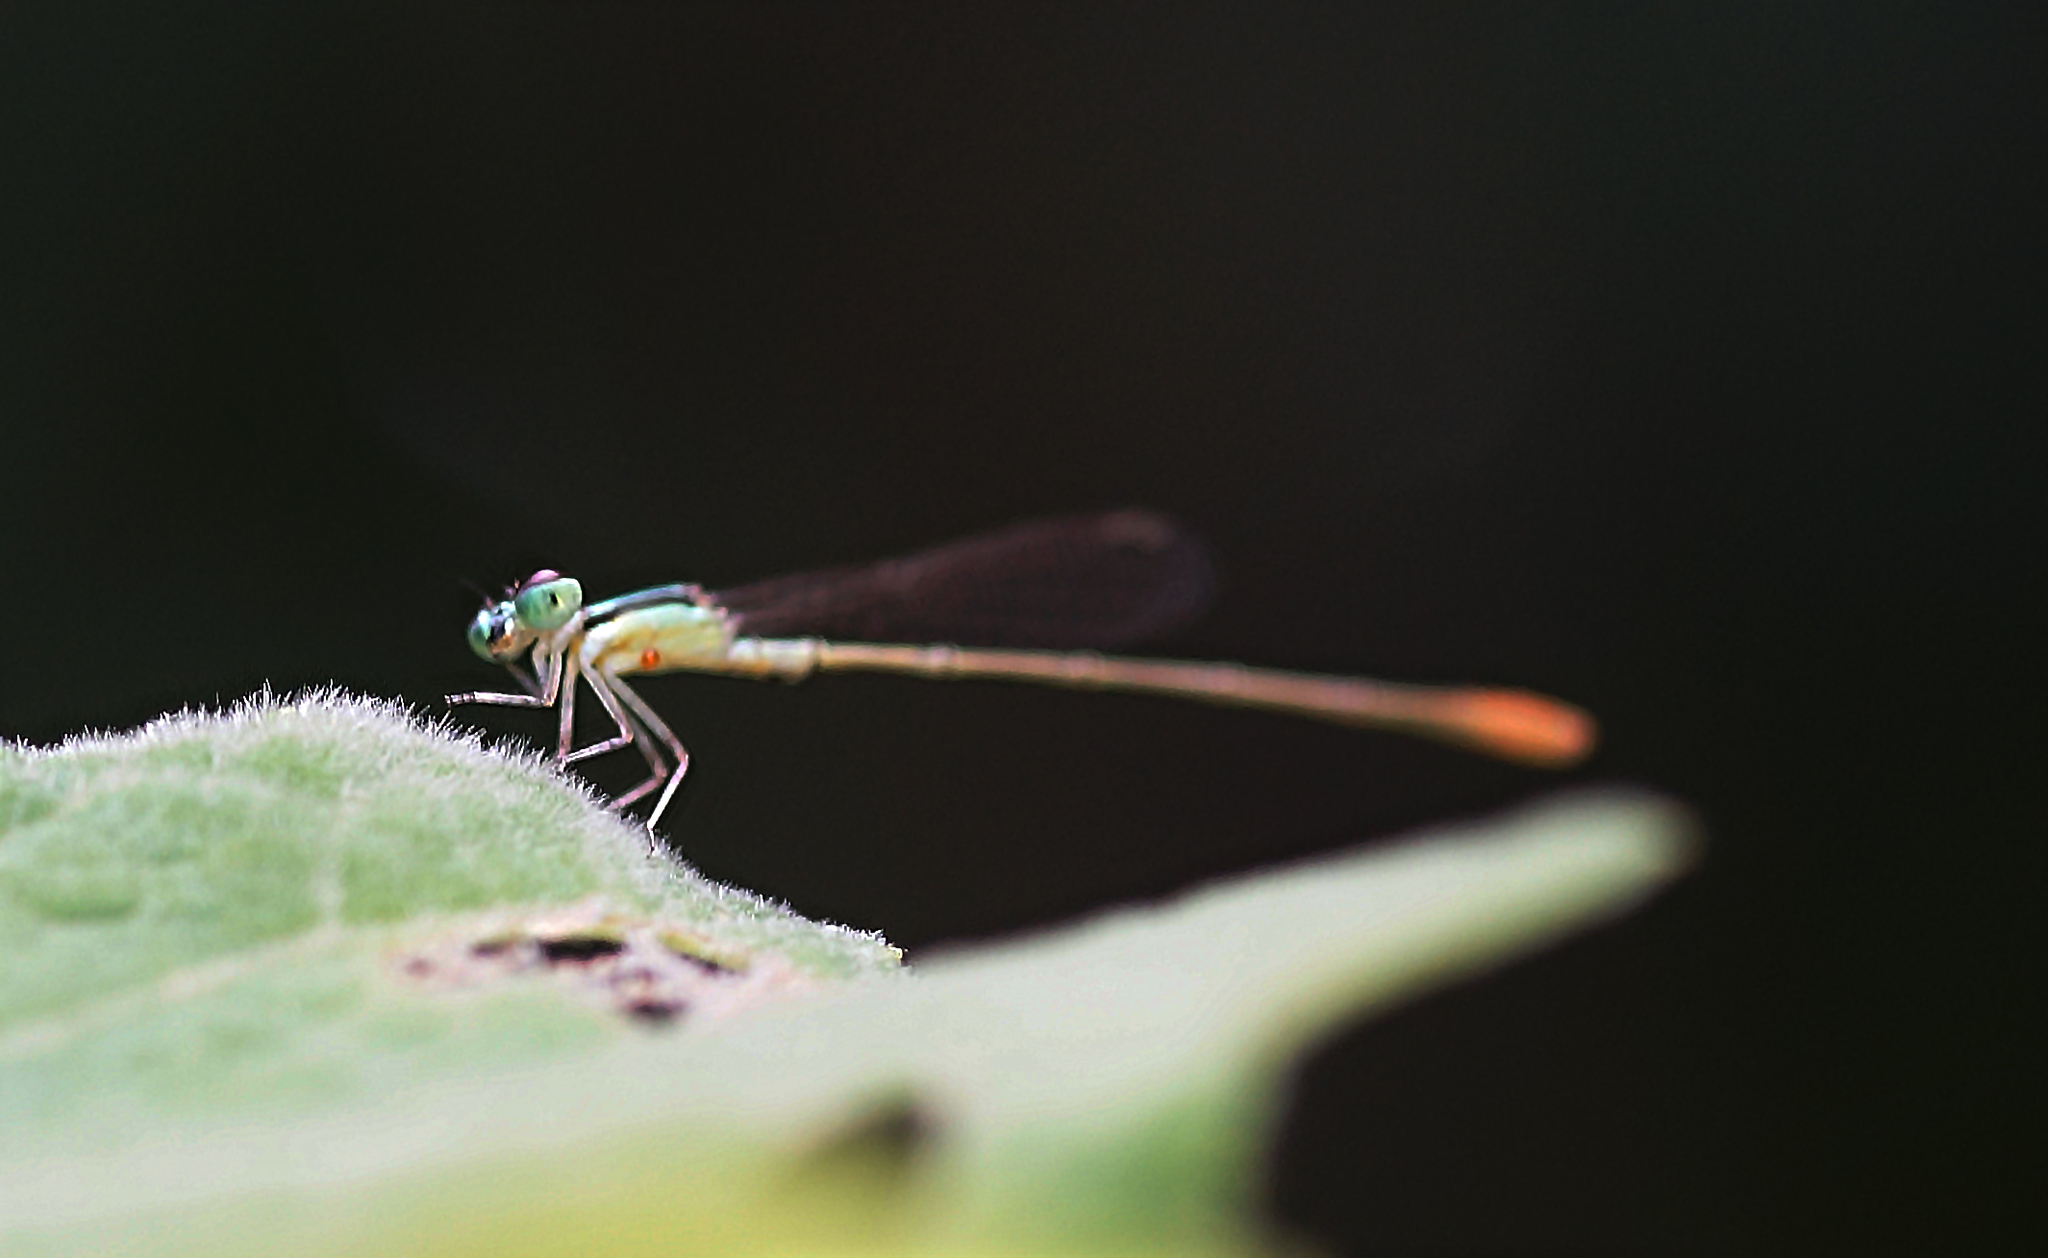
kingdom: Animalia
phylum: Arthropoda
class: Insecta
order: Odonata
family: Coenagrionidae
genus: Argiocnemis
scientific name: Argiocnemis rubescens
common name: Red-tipped shadefly
